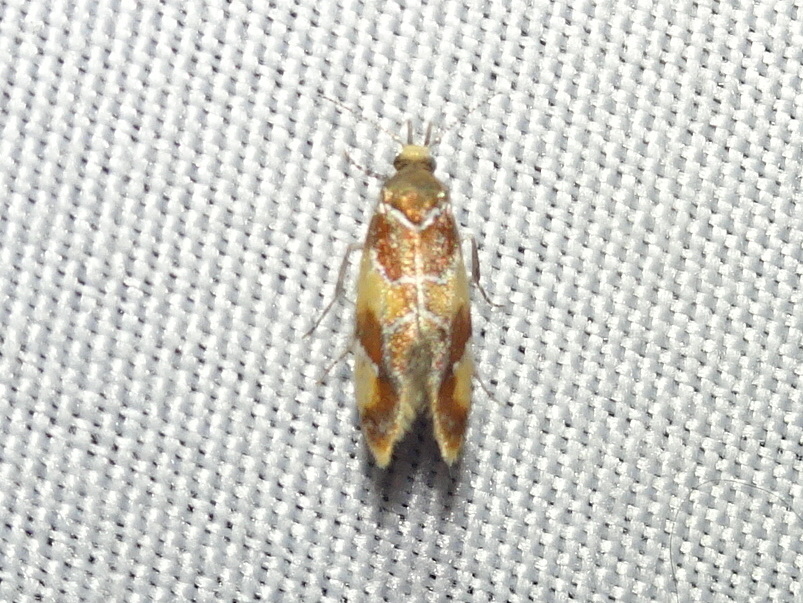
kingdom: Animalia
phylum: Arthropoda
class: Insecta
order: Lepidoptera
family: Oecophoridae
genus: Callima
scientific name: Callima argenticinctella
